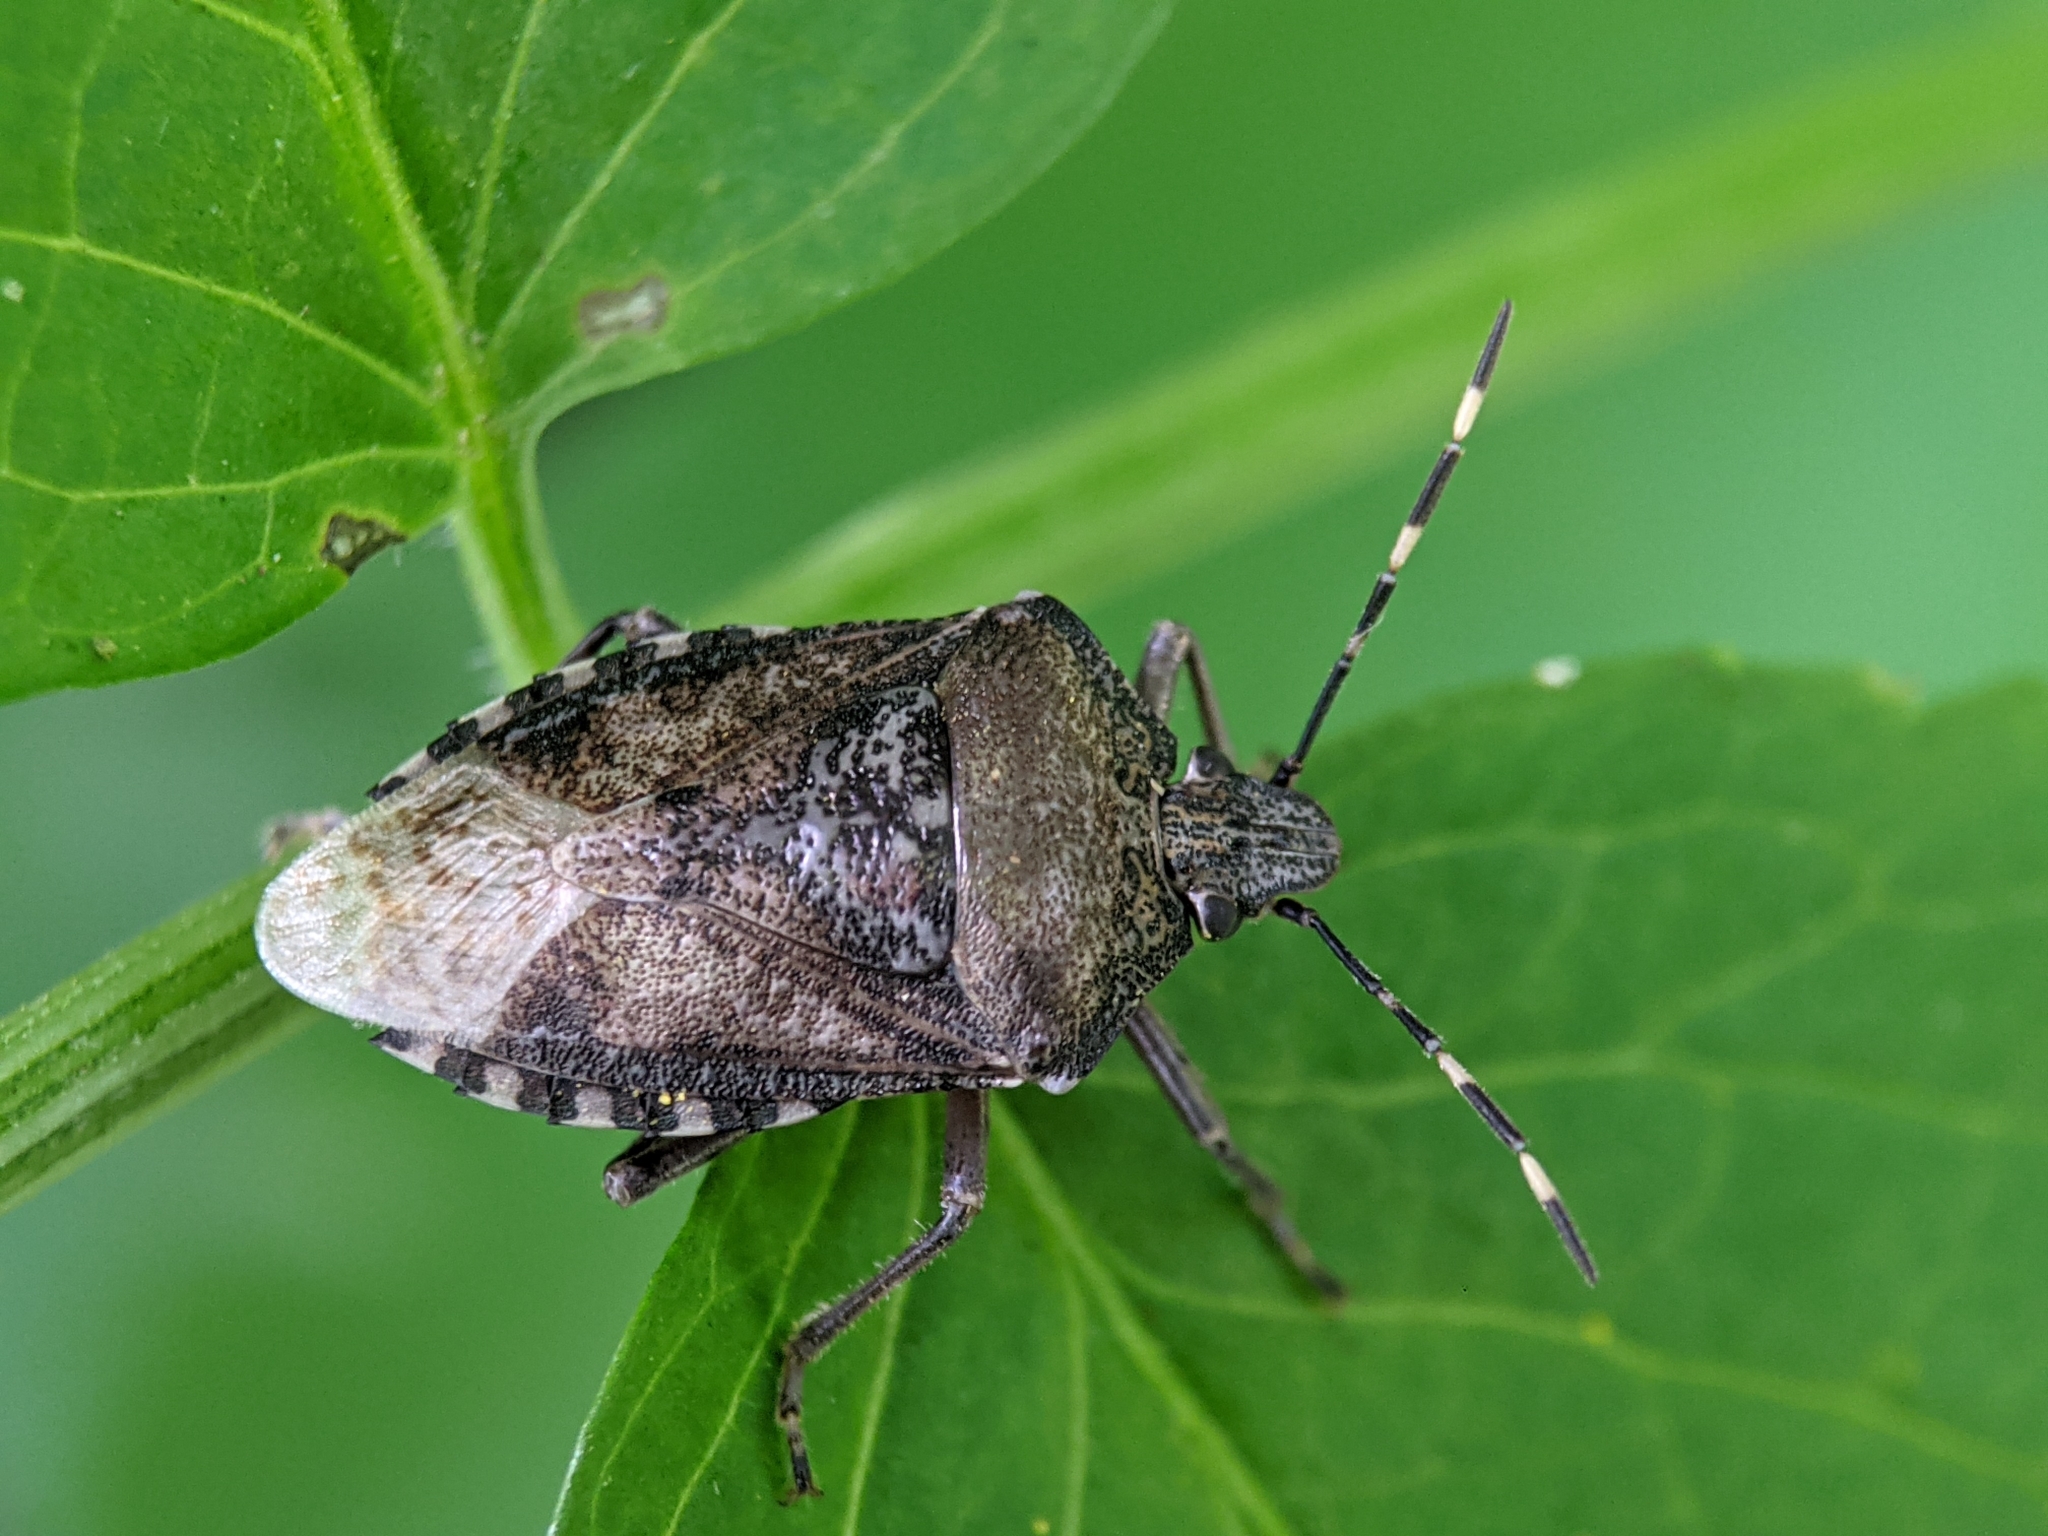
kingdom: Animalia
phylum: Arthropoda
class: Insecta
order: Hemiptera
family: Pentatomidae
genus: Rhaphigaster
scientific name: Rhaphigaster nebulosa
